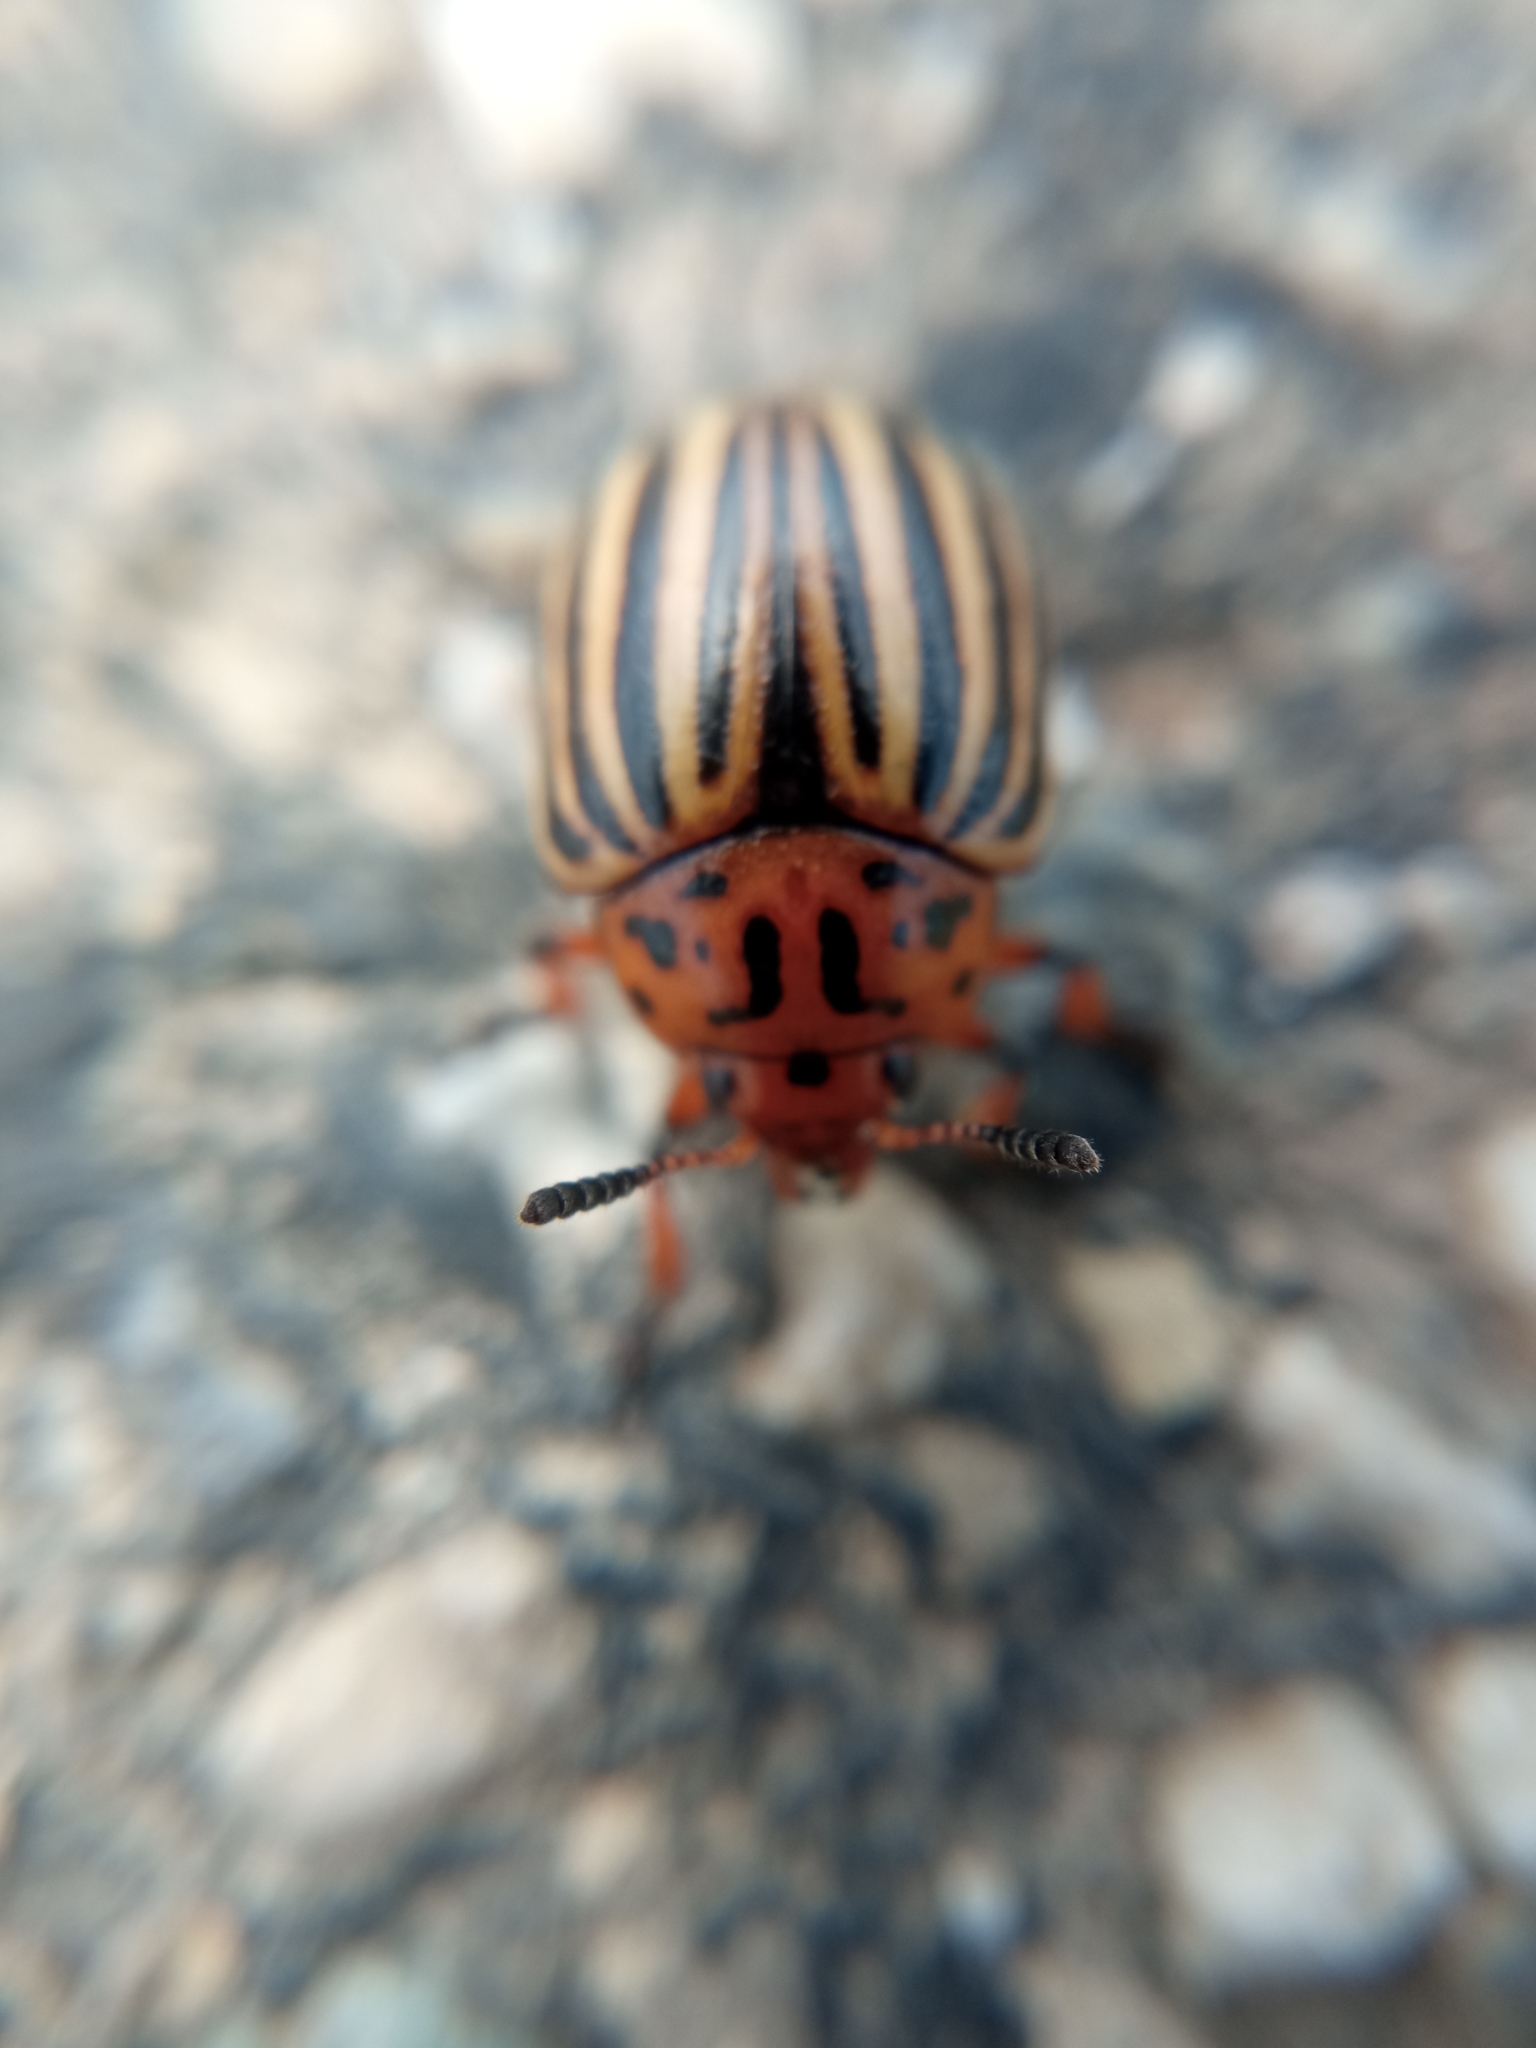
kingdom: Animalia
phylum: Arthropoda
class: Insecta
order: Coleoptera
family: Chrysomelidae
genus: Leptinotarsa
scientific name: Leptinotarsa decemlineata
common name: Colorado potato beetle
